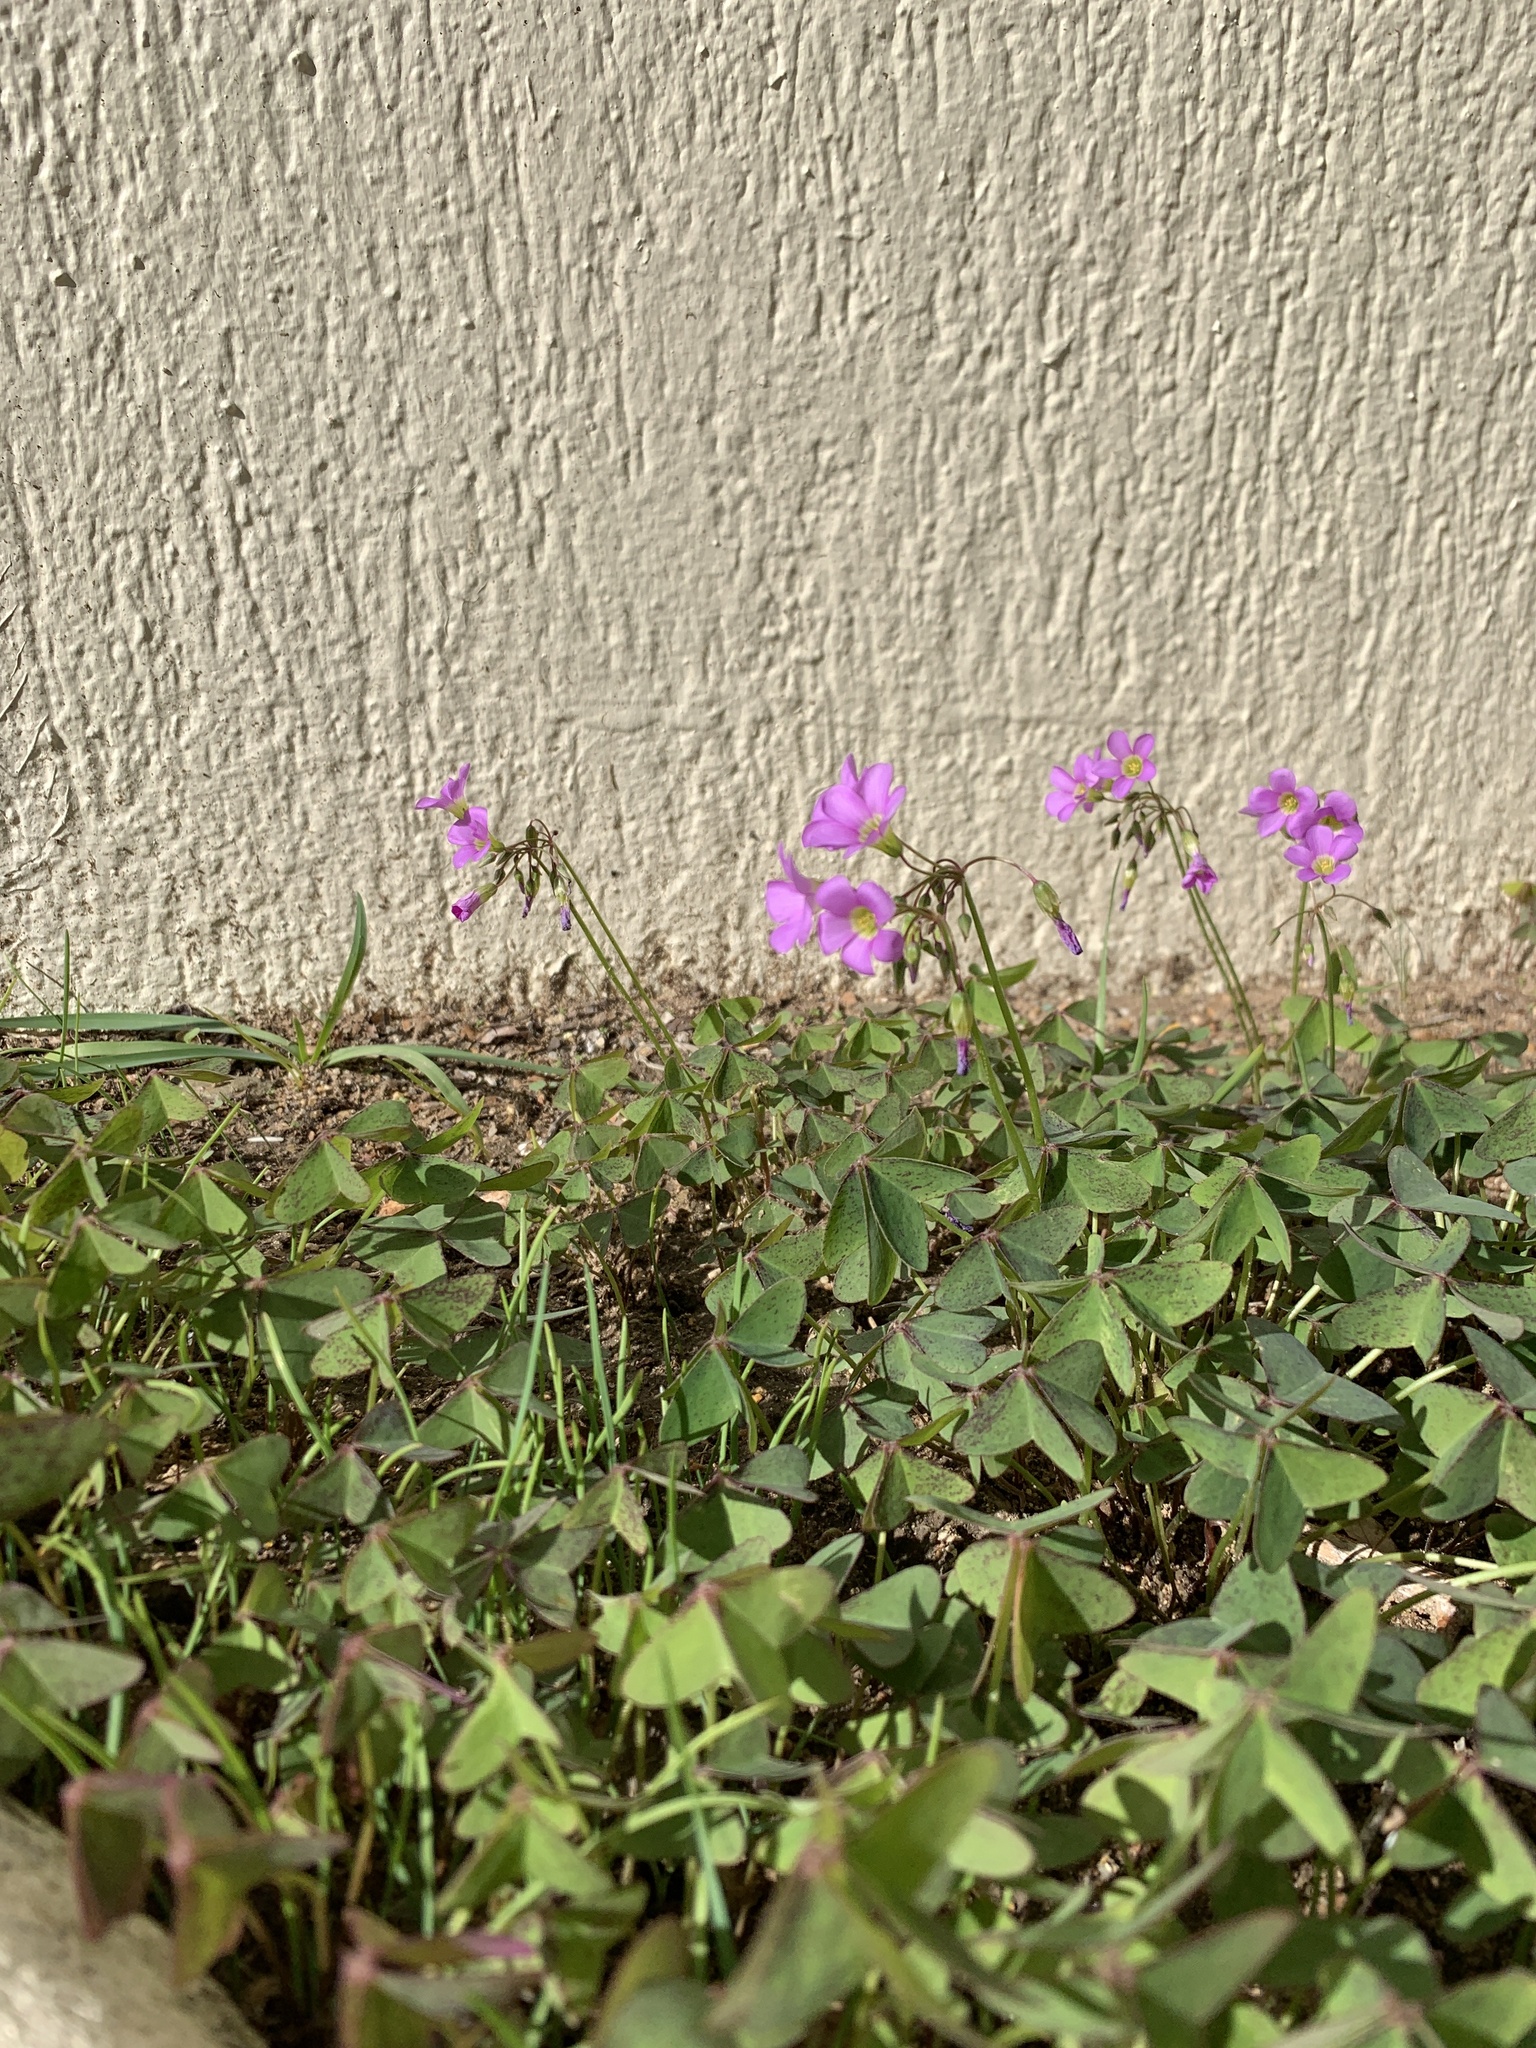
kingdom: Plantae
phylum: Tracheophyta
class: Magnoliopsida
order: Oxalidales
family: Oxalidaceae
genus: Oxalis
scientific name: Oxalis latifolia
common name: Garden pink-sorrel
